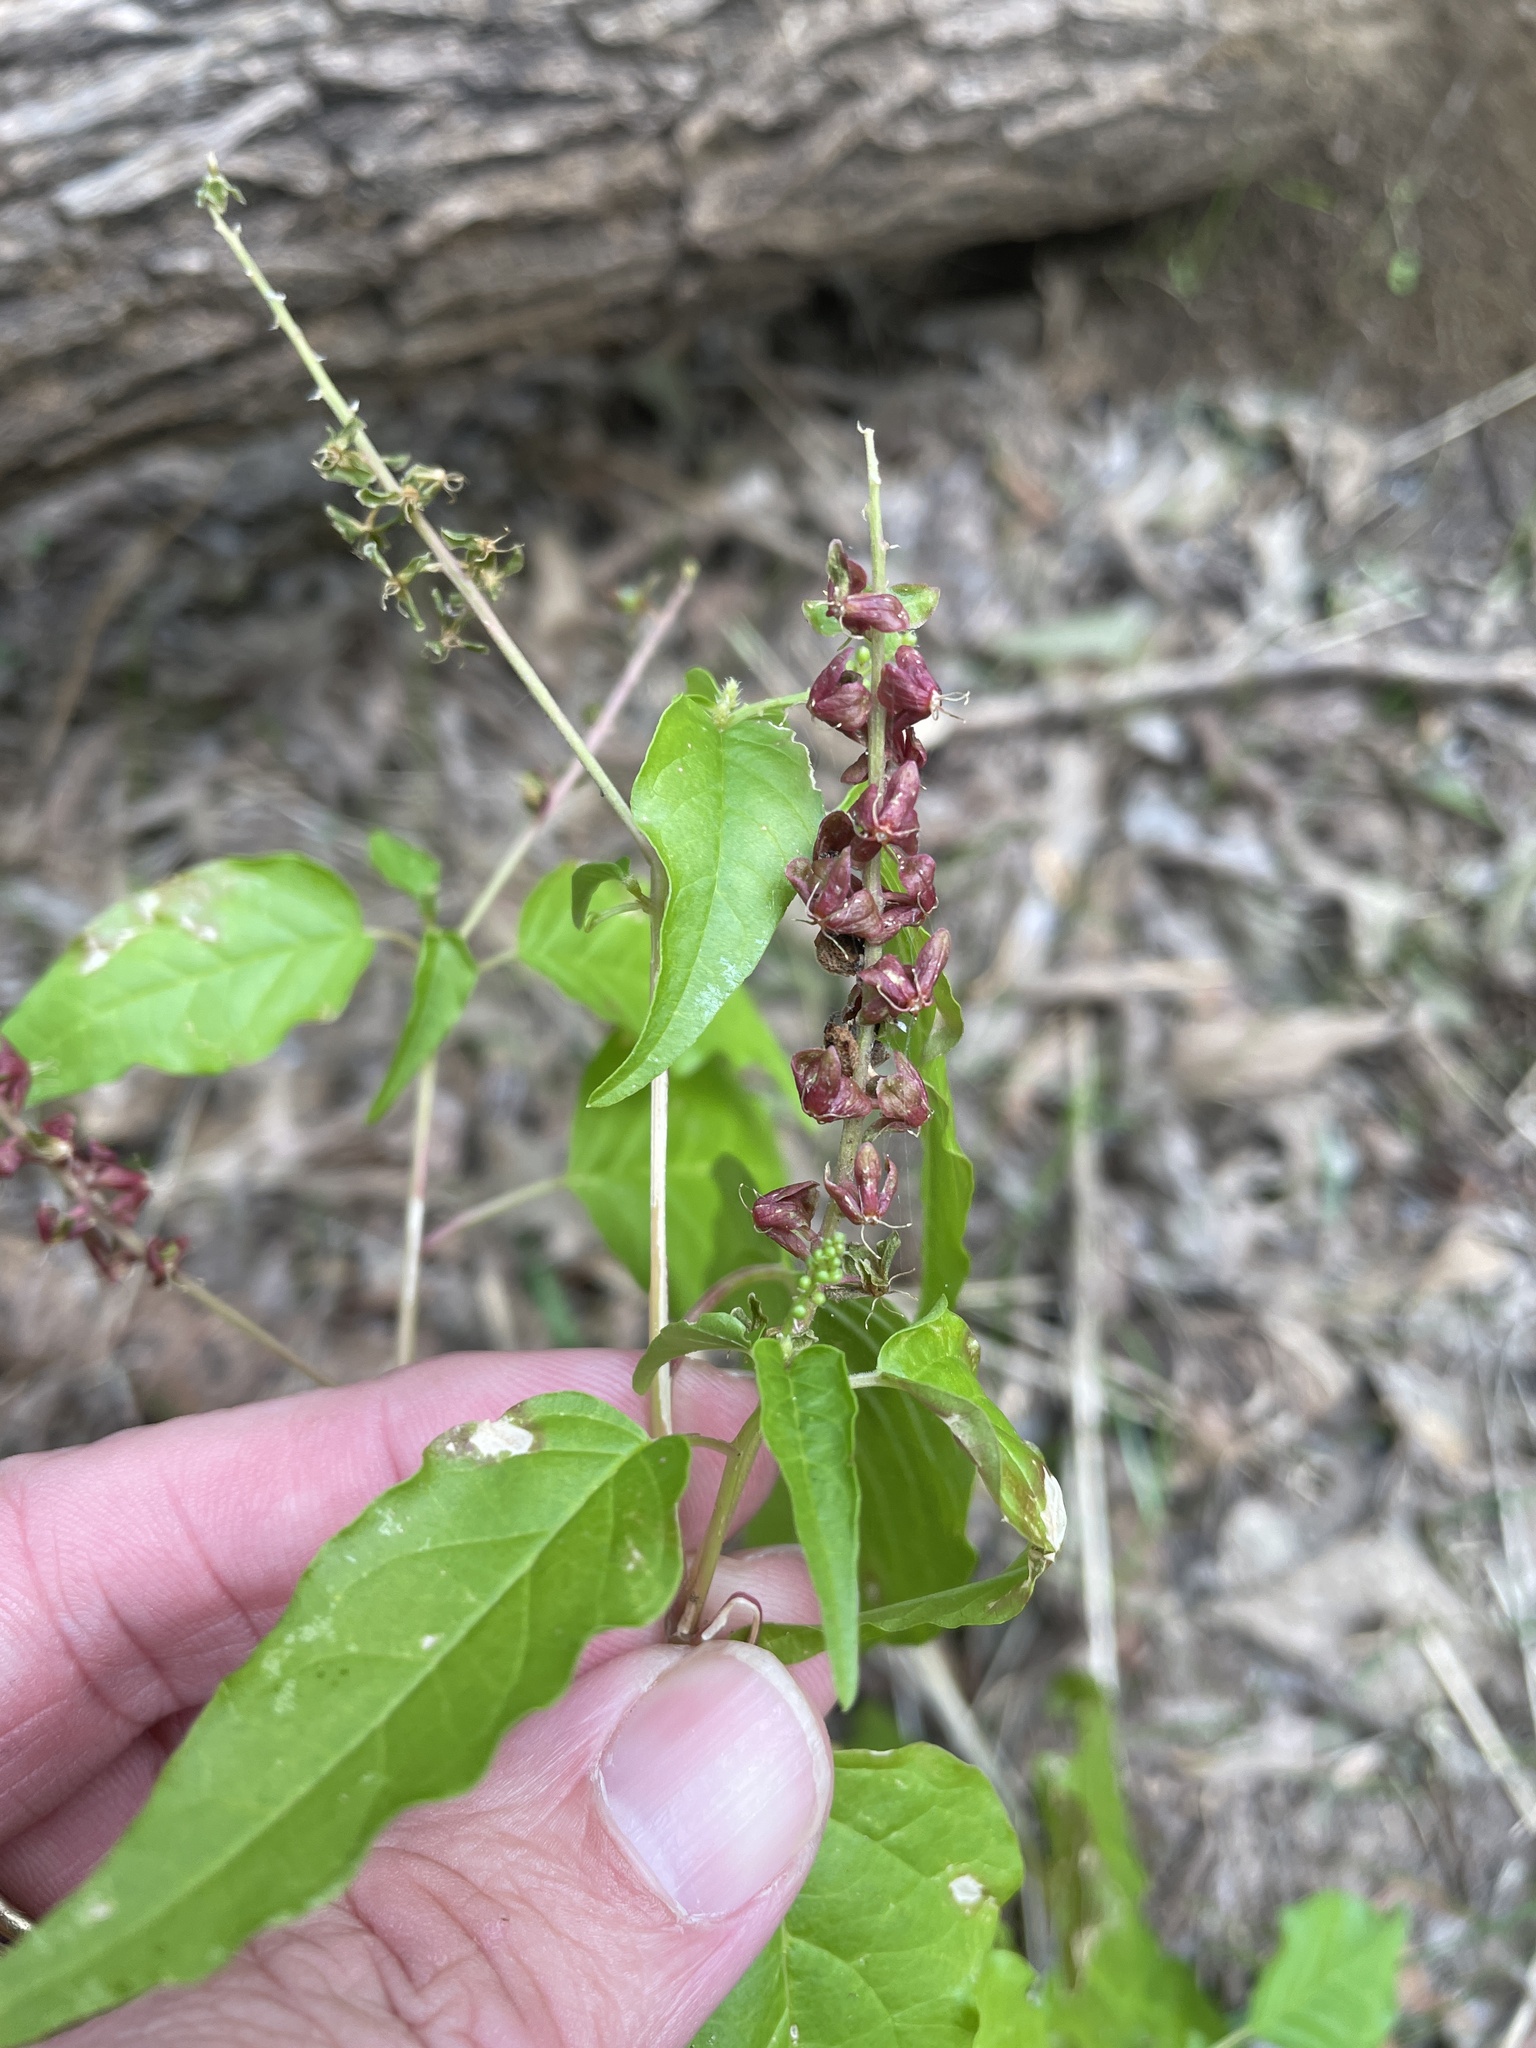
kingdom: Plantae
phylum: Tracheophyta
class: Magnoliopsida
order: Caryophyllales
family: Phytolaccaceae
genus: Rivina
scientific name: Rivina humilis
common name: Rougeplant
